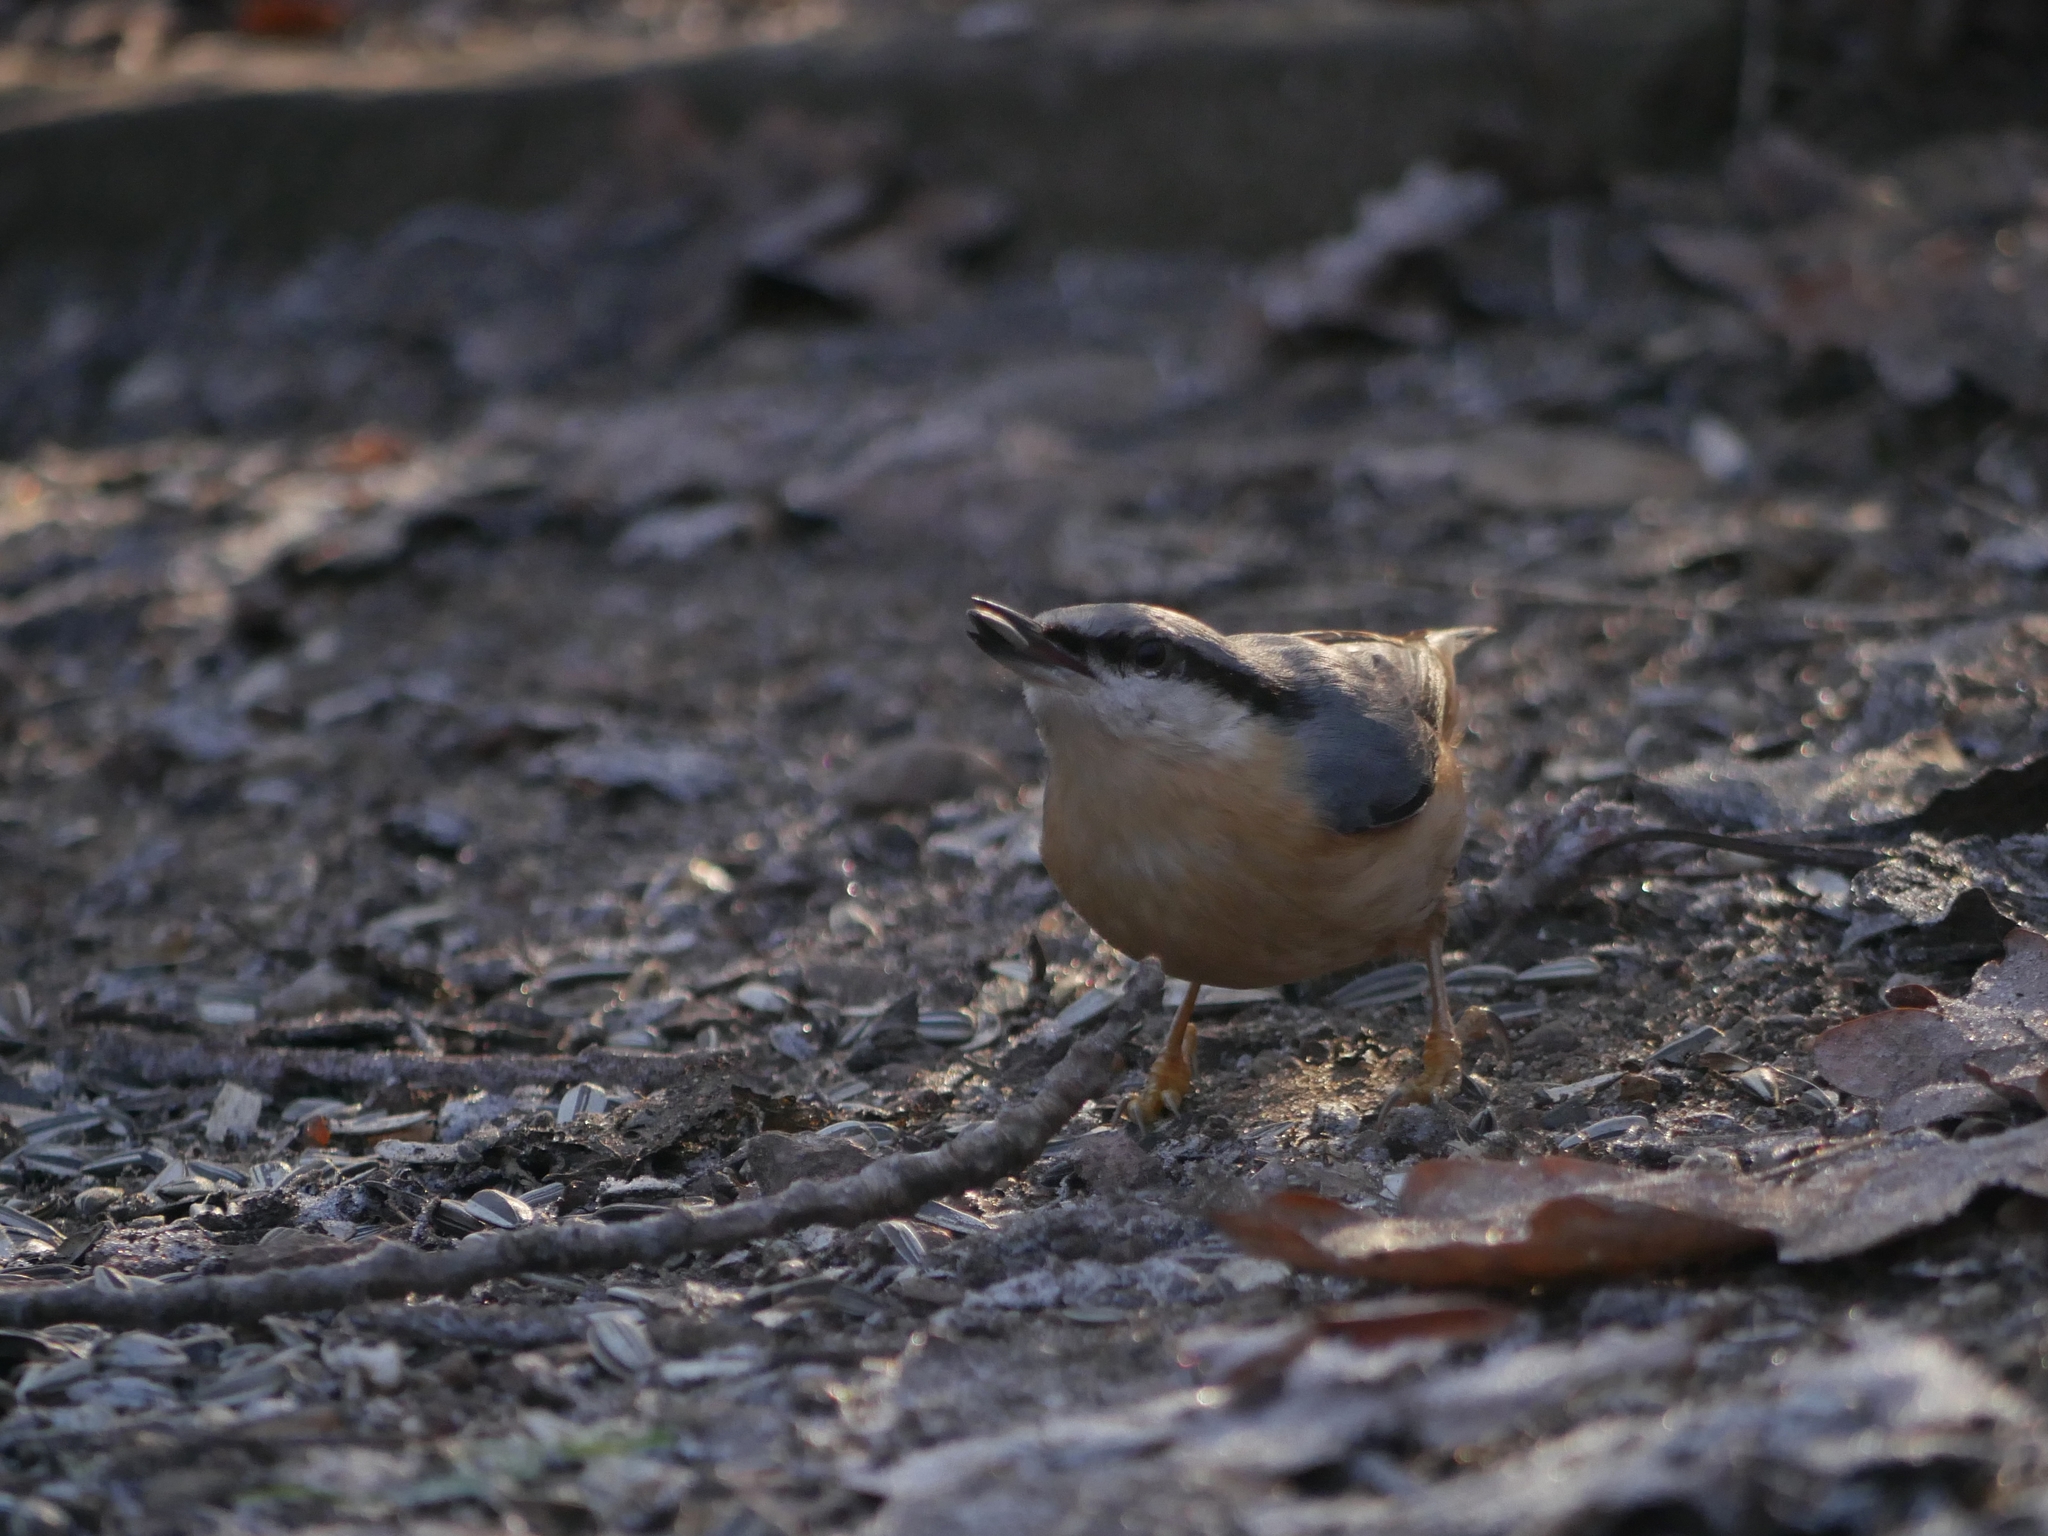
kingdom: Animalia
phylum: Chordata
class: Aves
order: Passeriformes
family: Sittidae
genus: Sitta
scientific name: Sitta europaea
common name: Eurasian nuthatch
